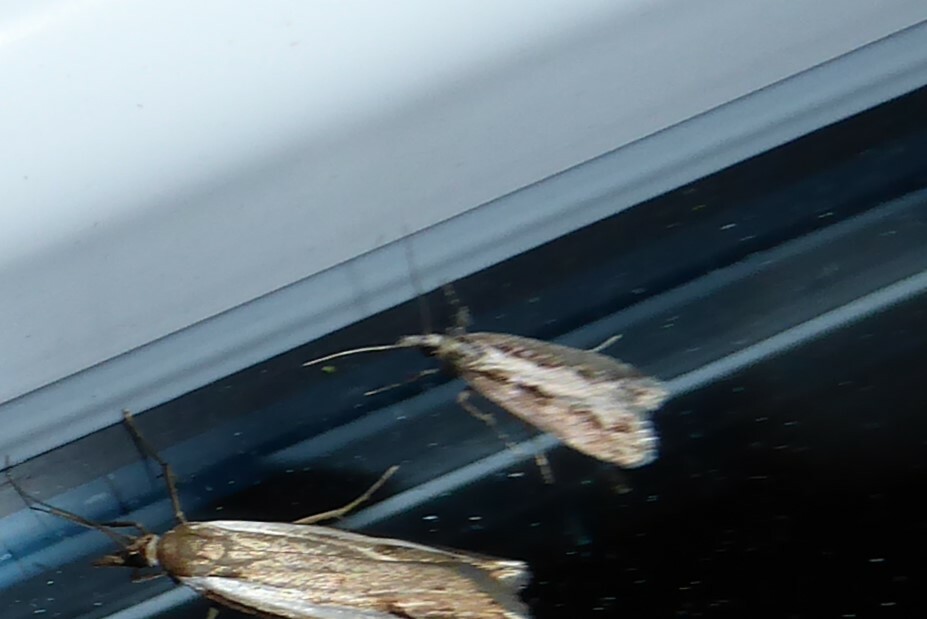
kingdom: Animalia
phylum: Arthropoda
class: Insecta
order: Lepidoptera
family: Crambidae
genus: Eudonia
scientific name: Eudonia steropaea
